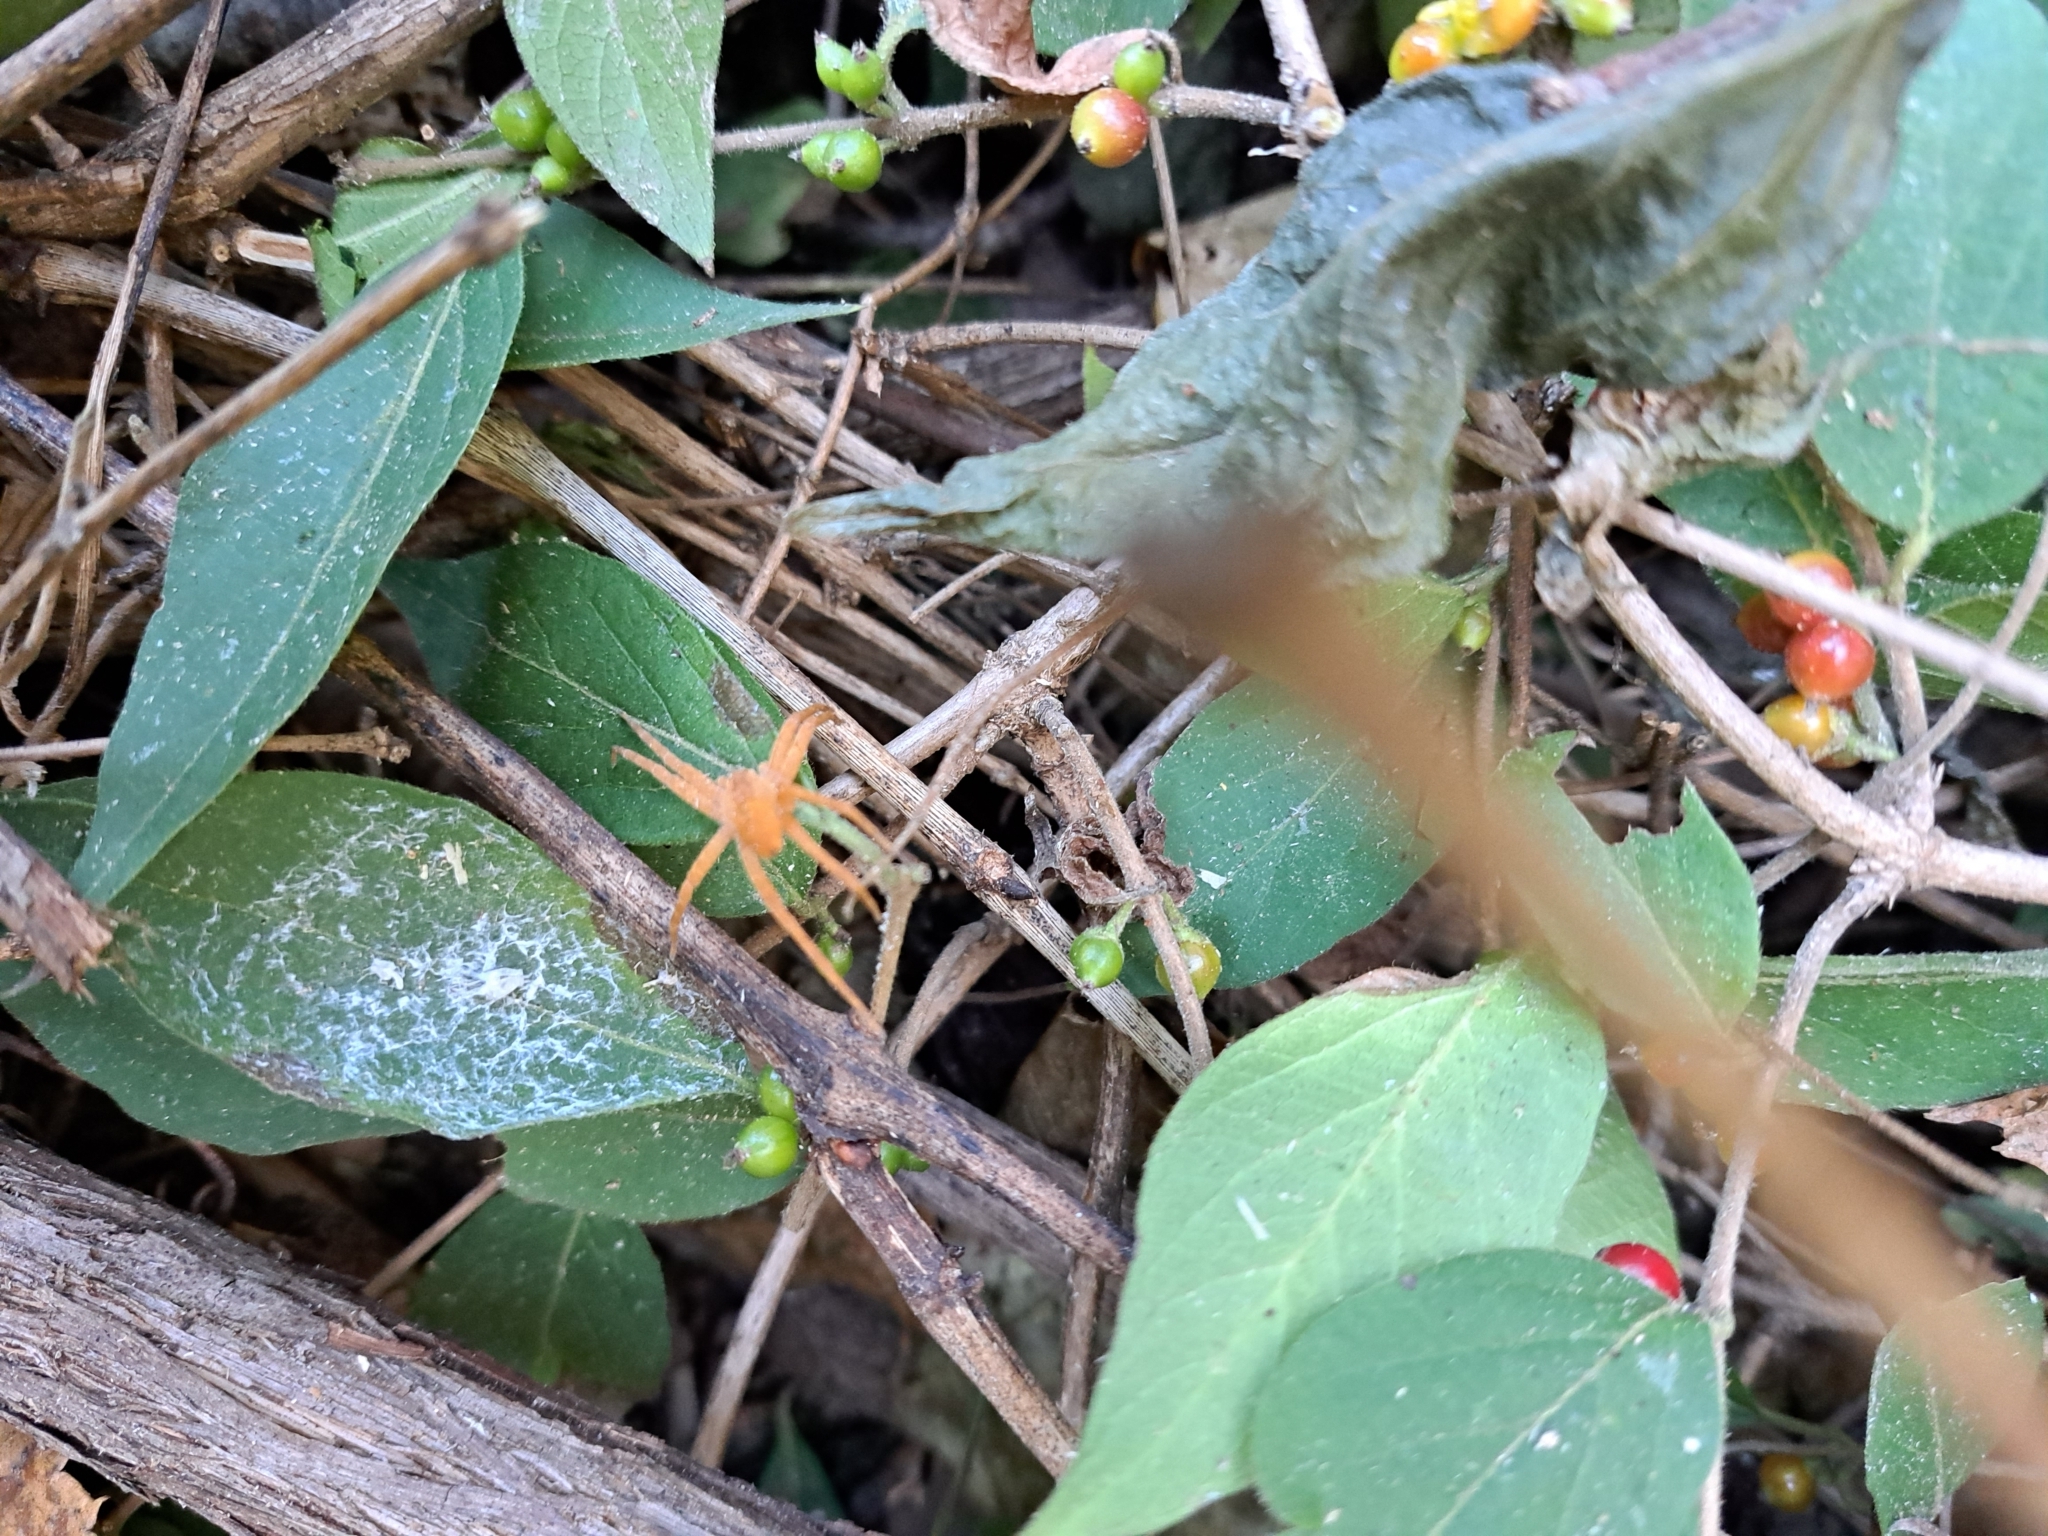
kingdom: Animalia
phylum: Arthropoda
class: Arachnida
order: Araneae
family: Pisauridae
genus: Pisaurina
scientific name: Pisaurina mira
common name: American nursery web spider
